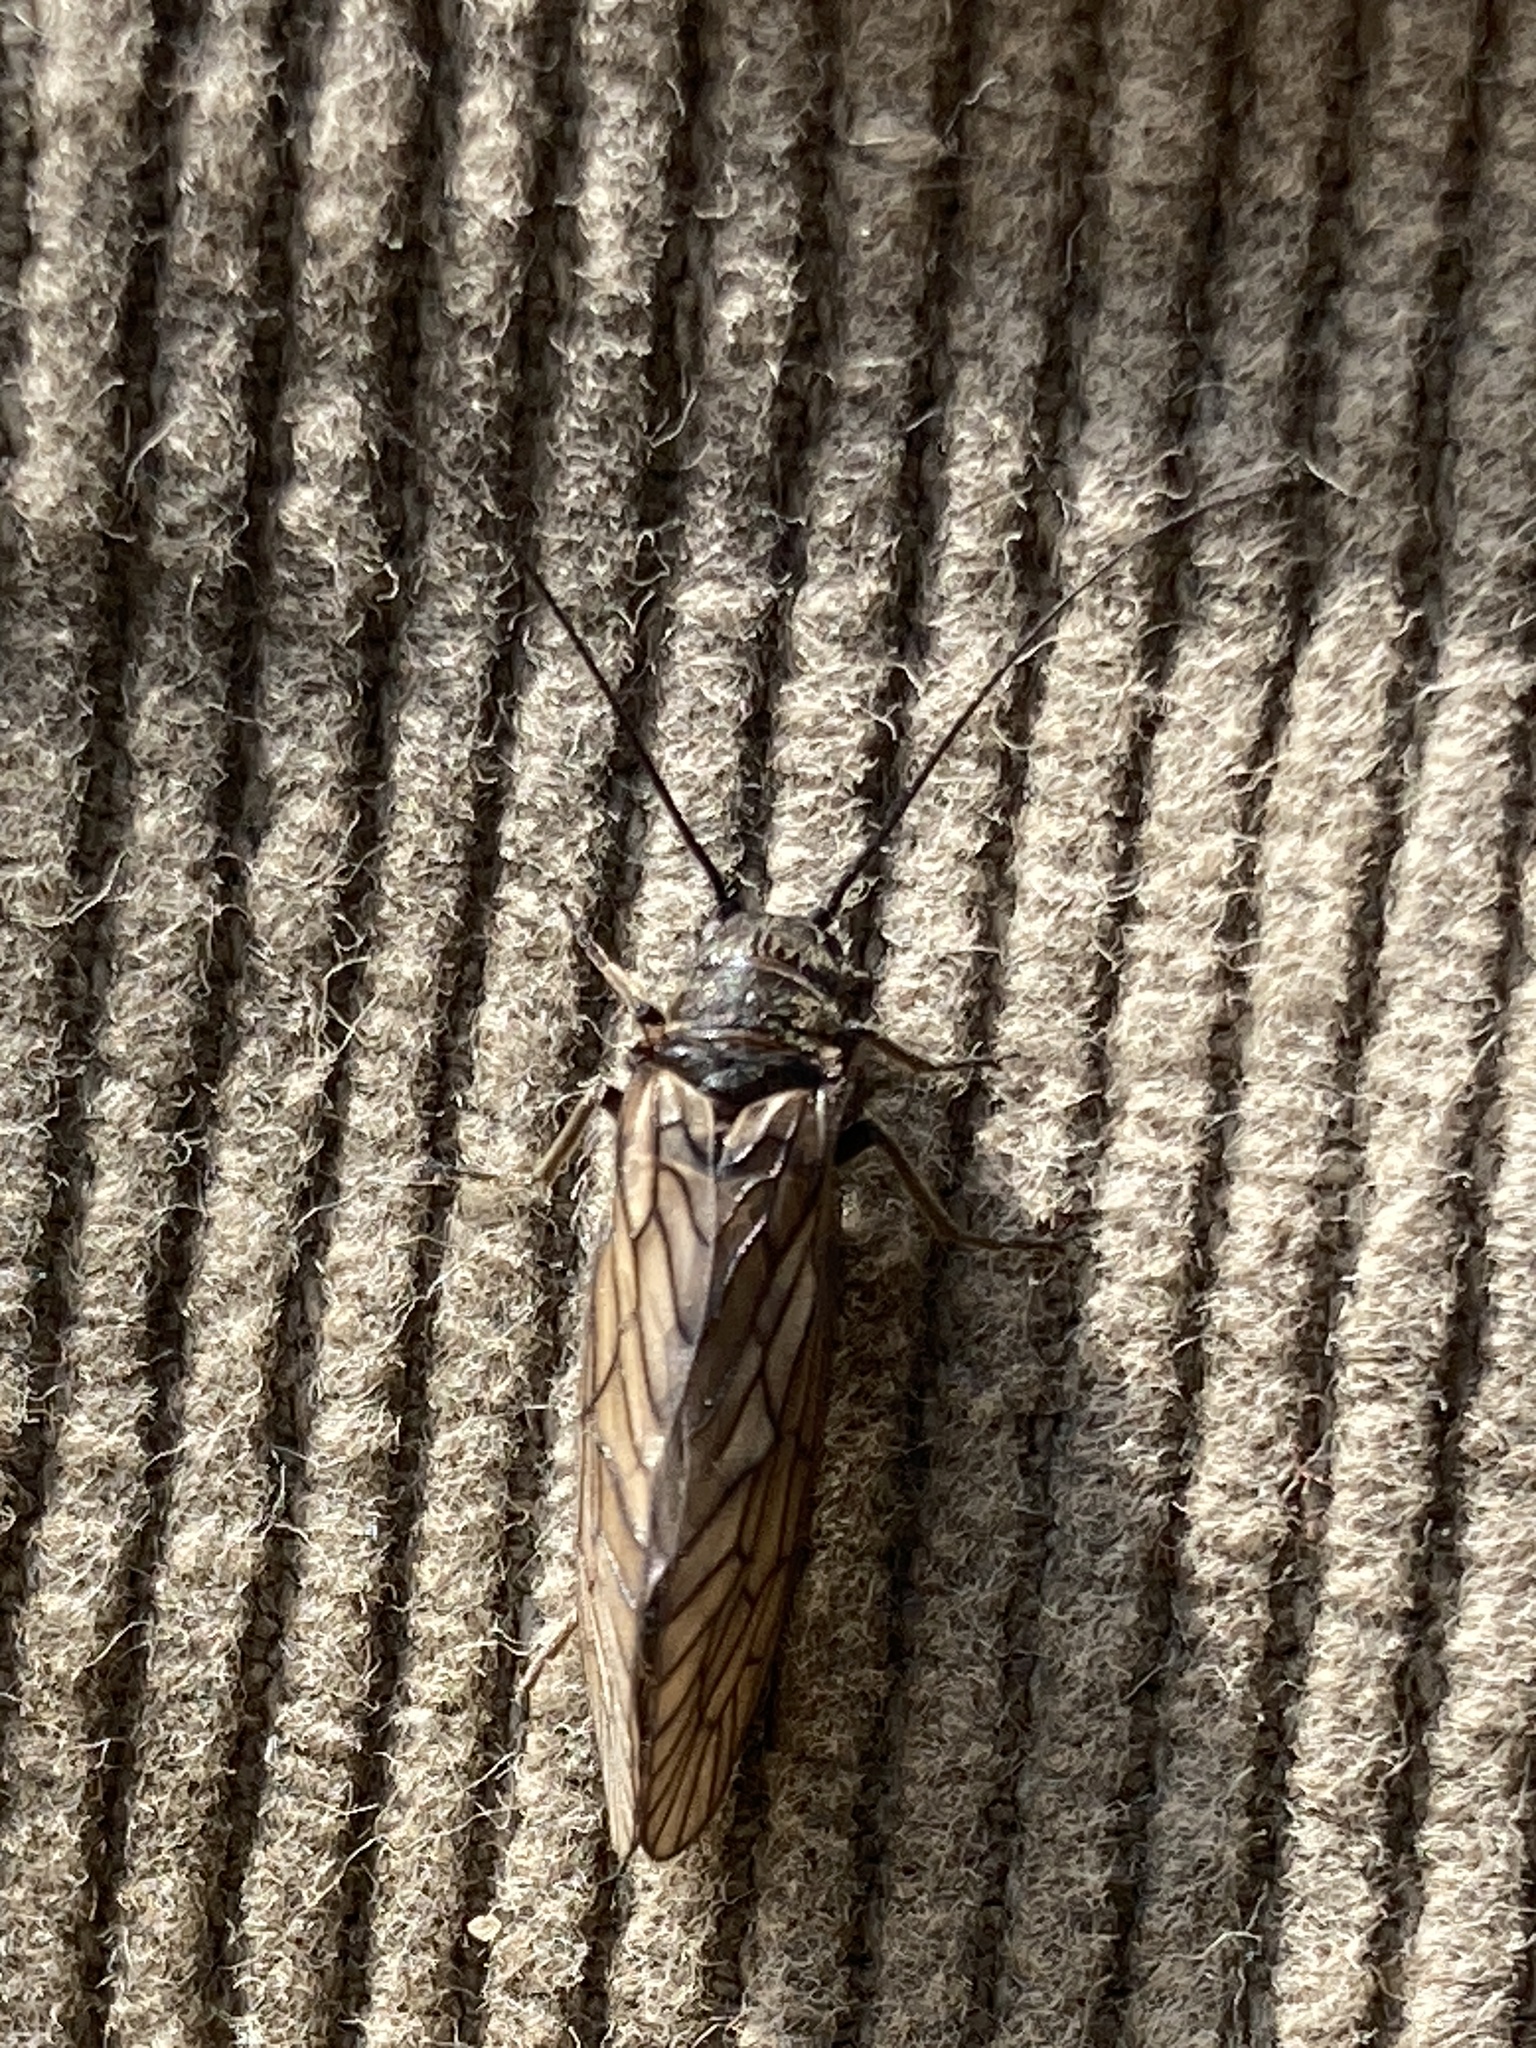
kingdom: Animalia
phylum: Arthropoda
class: Insecta
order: Megaloptera
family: Sialidae
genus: Sialis
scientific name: Sialis
